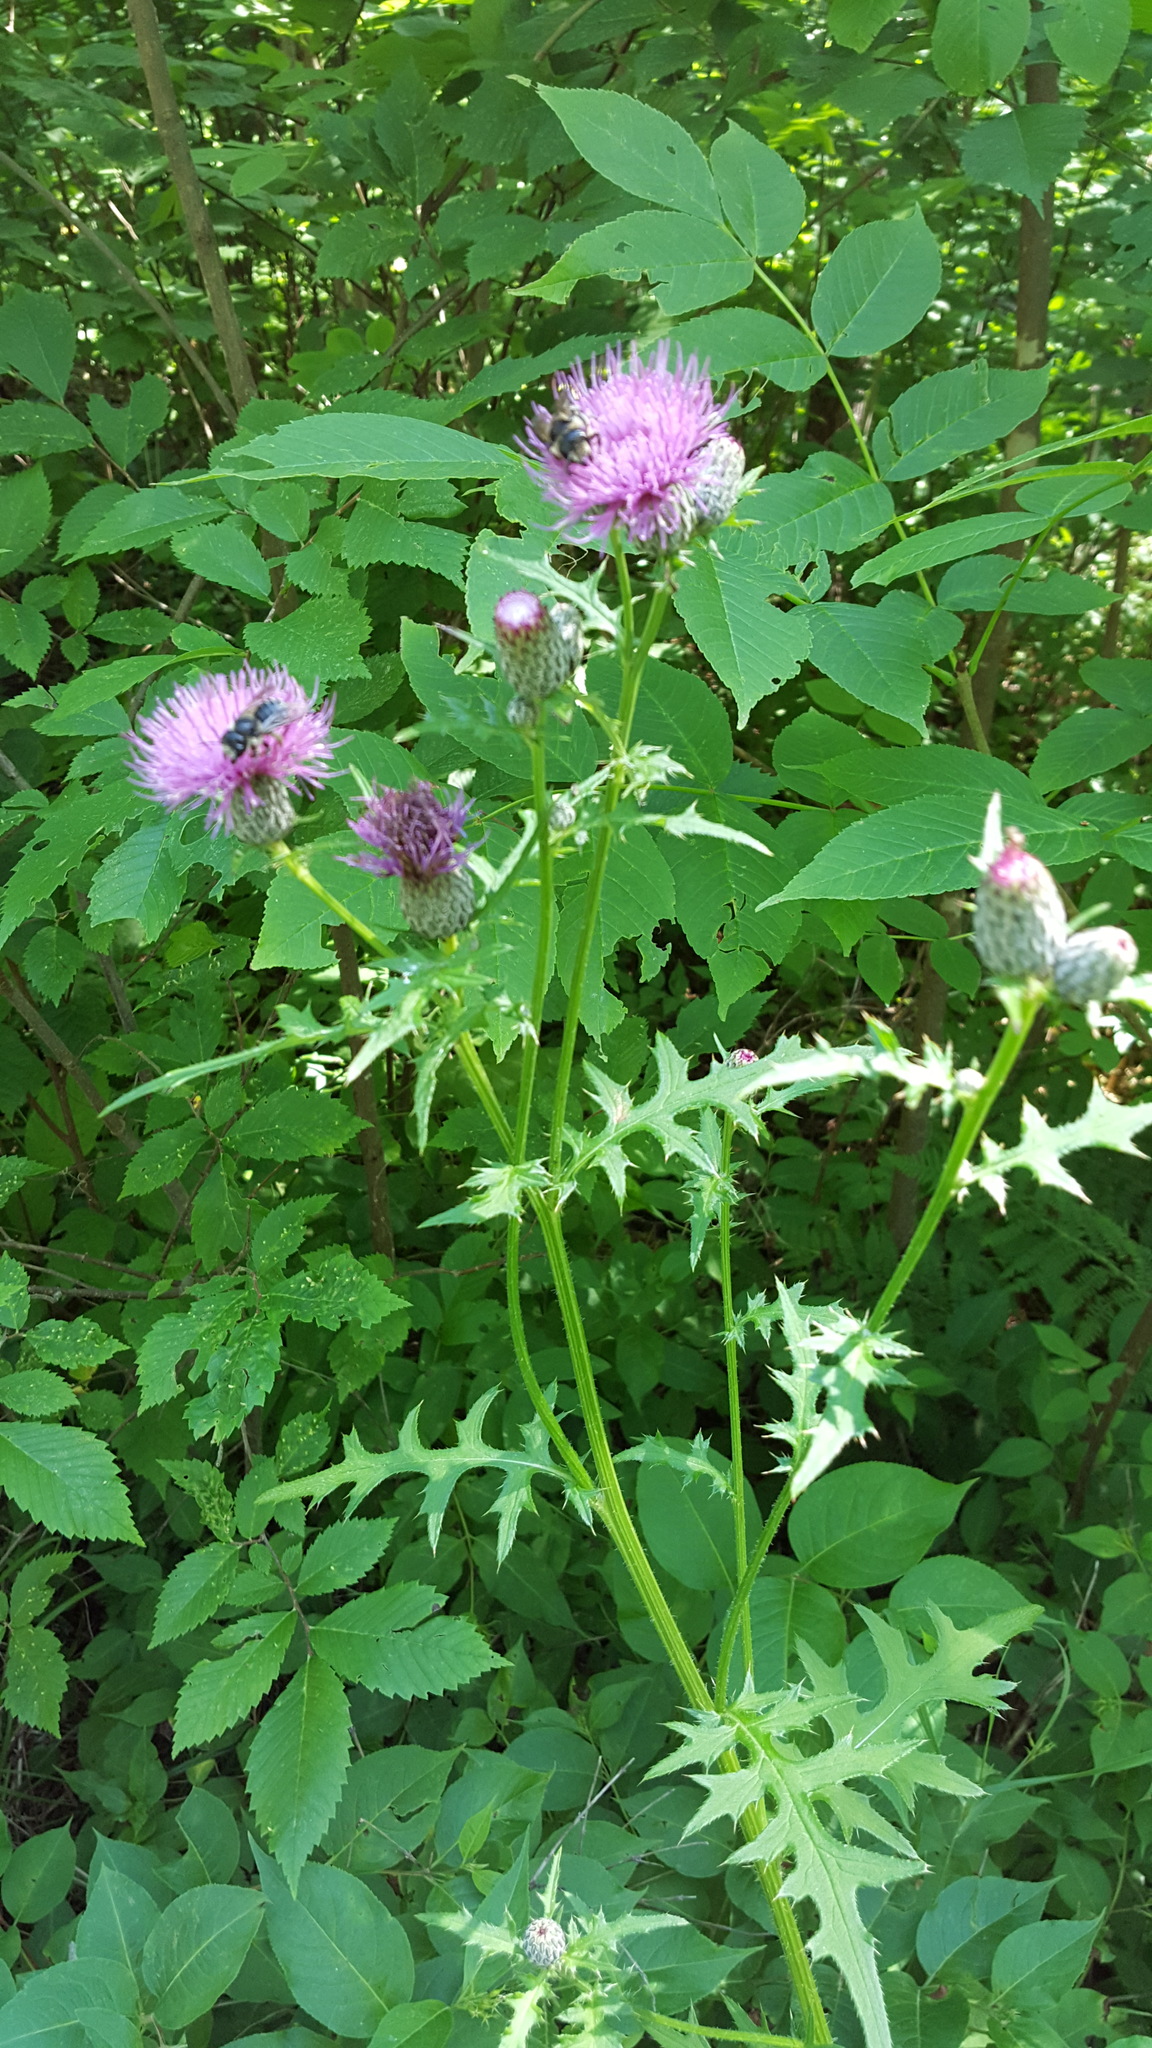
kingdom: Plantae
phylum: Tracheophyta
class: Magnoliopsida
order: Asterales
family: Asteraceae
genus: Cirsium
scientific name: Cirsium muticum
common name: Dunce-nettle
